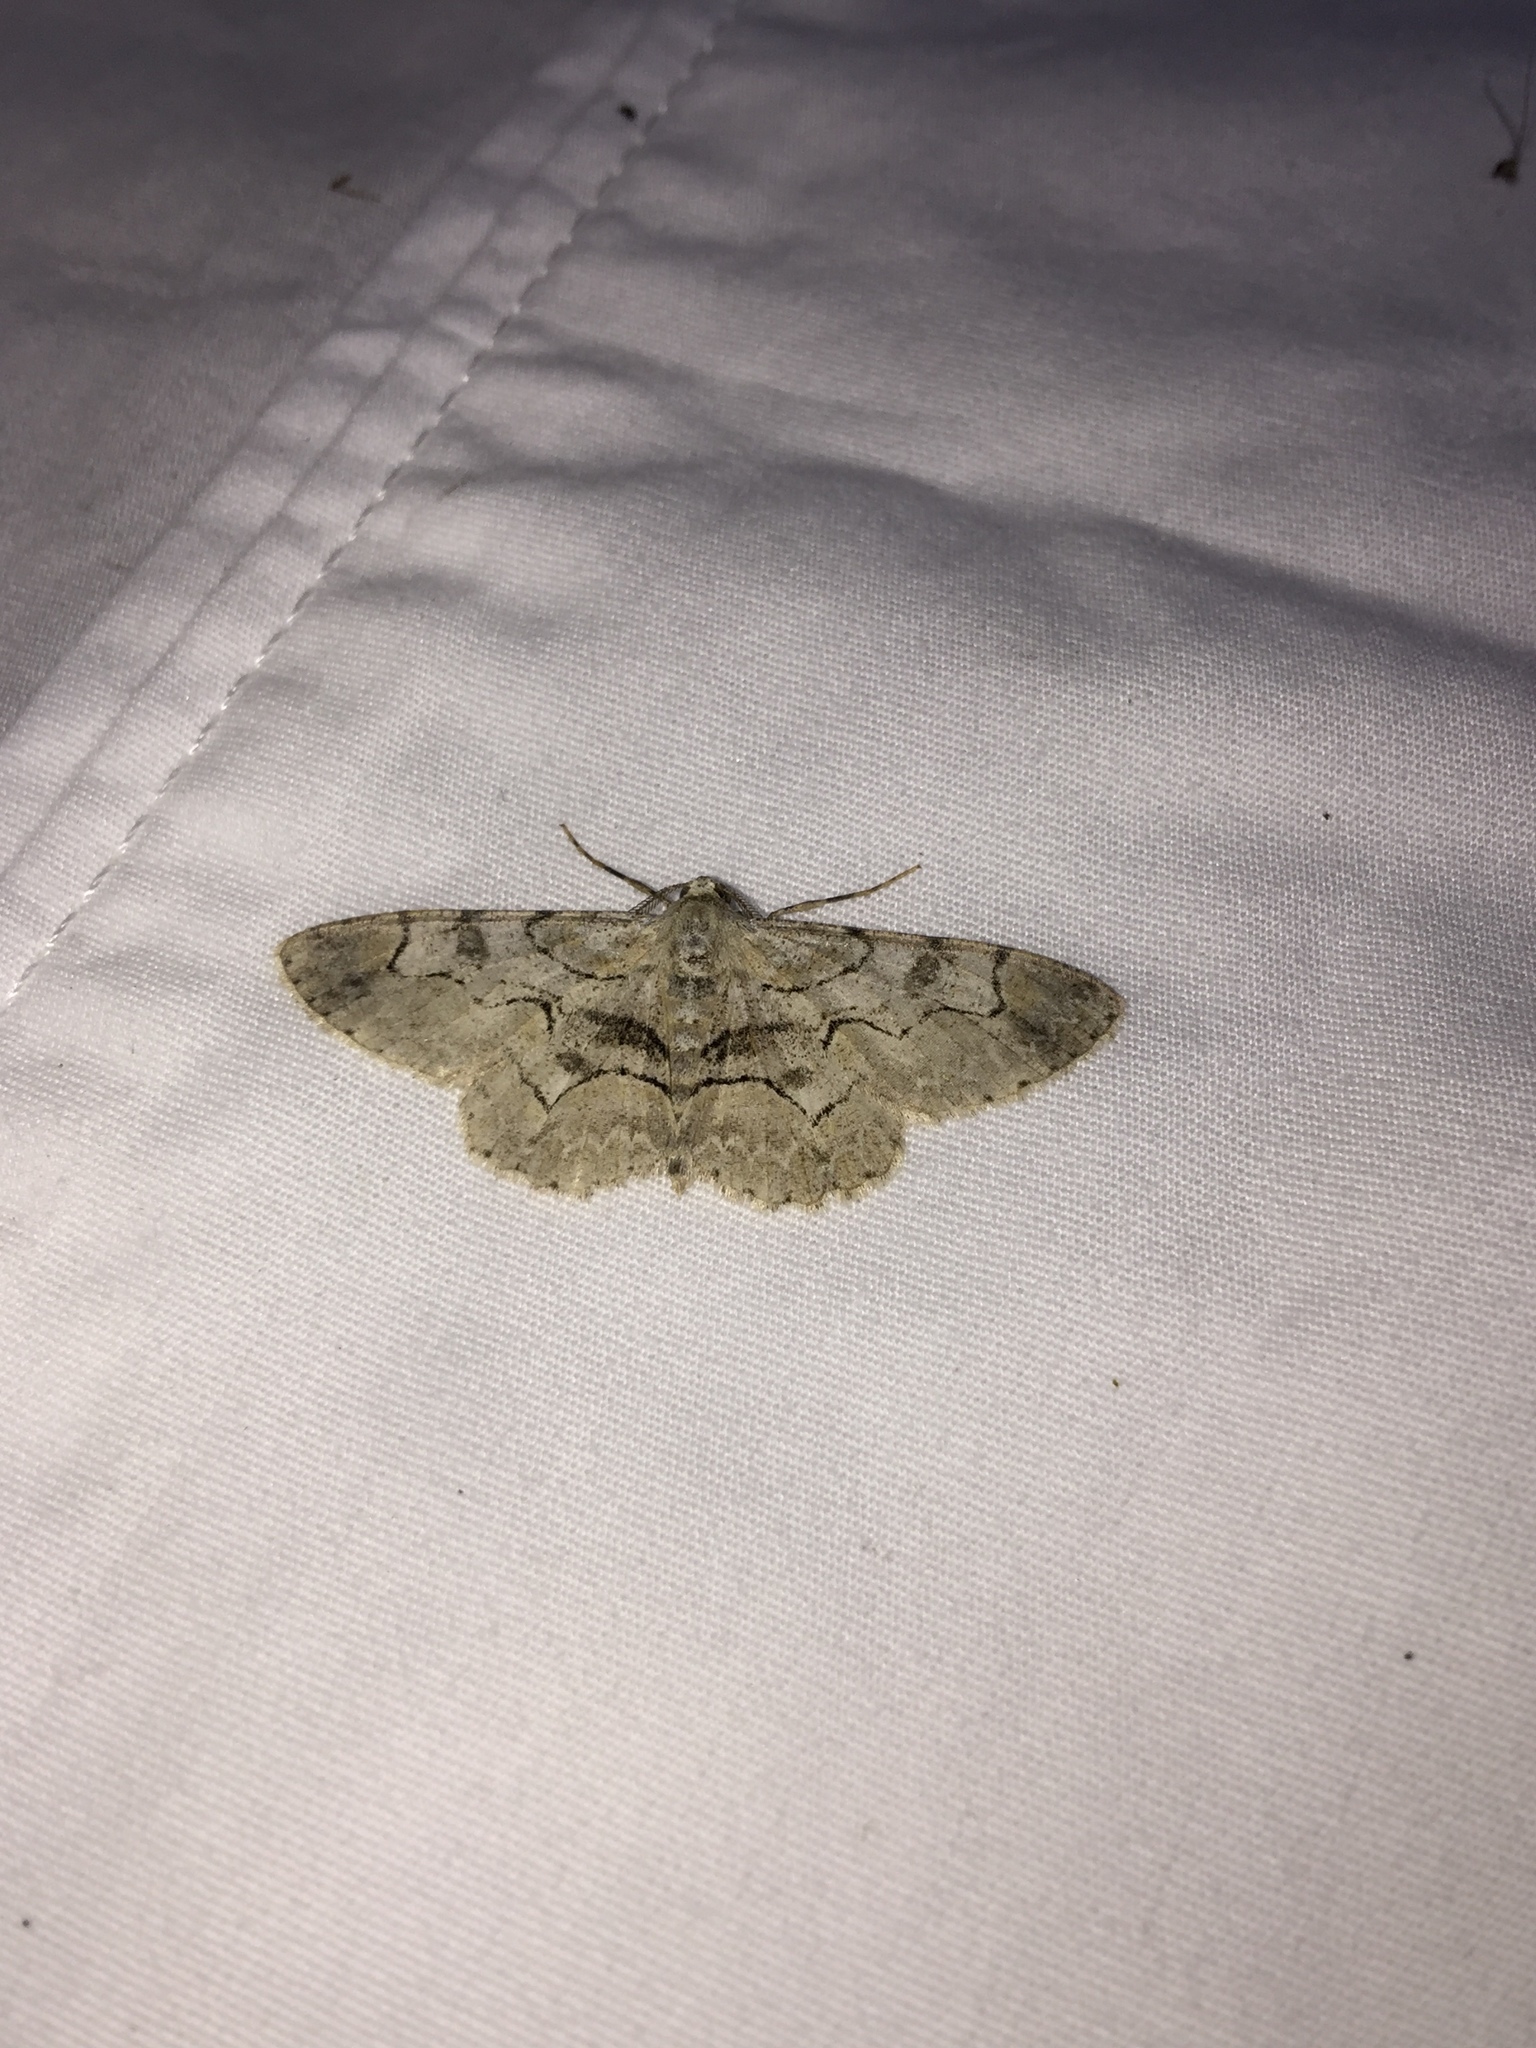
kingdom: Animalia
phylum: Arthropoda
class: Insecta
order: Lepidoptera
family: Geometridae
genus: Iridopsis
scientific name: Iridopsis larvaria
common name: Bent-line gray
